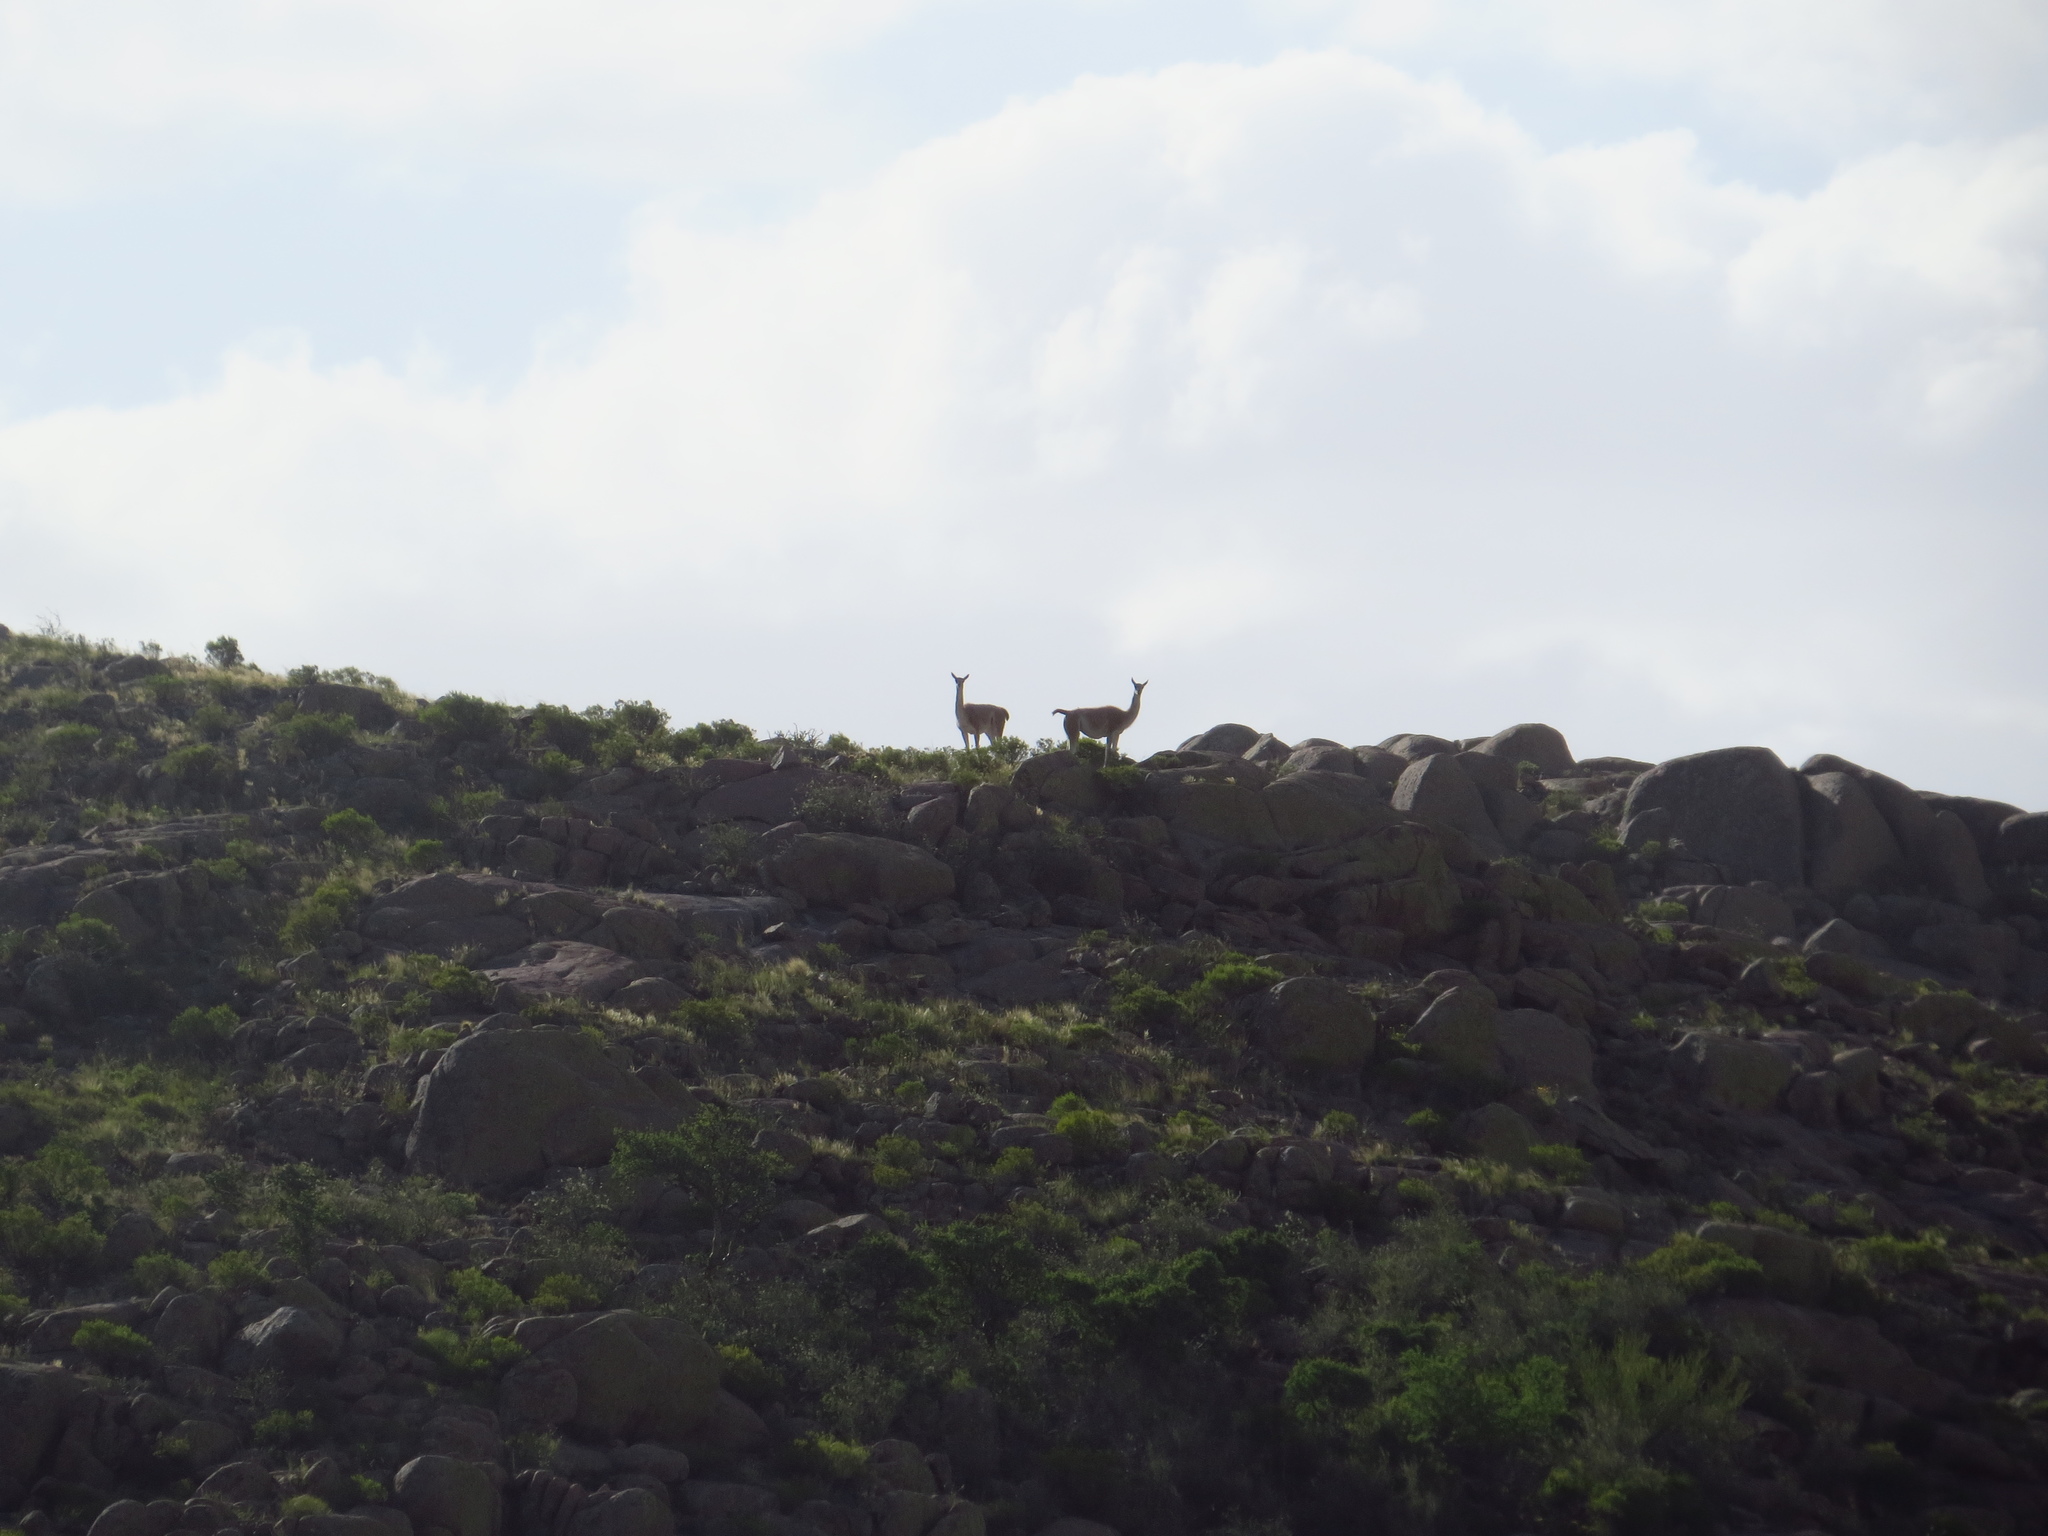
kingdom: Animalia
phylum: Chordata
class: Mammalia
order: Artiodactyla
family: Camelidae
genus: Lama
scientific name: Lama glama
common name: Llama
